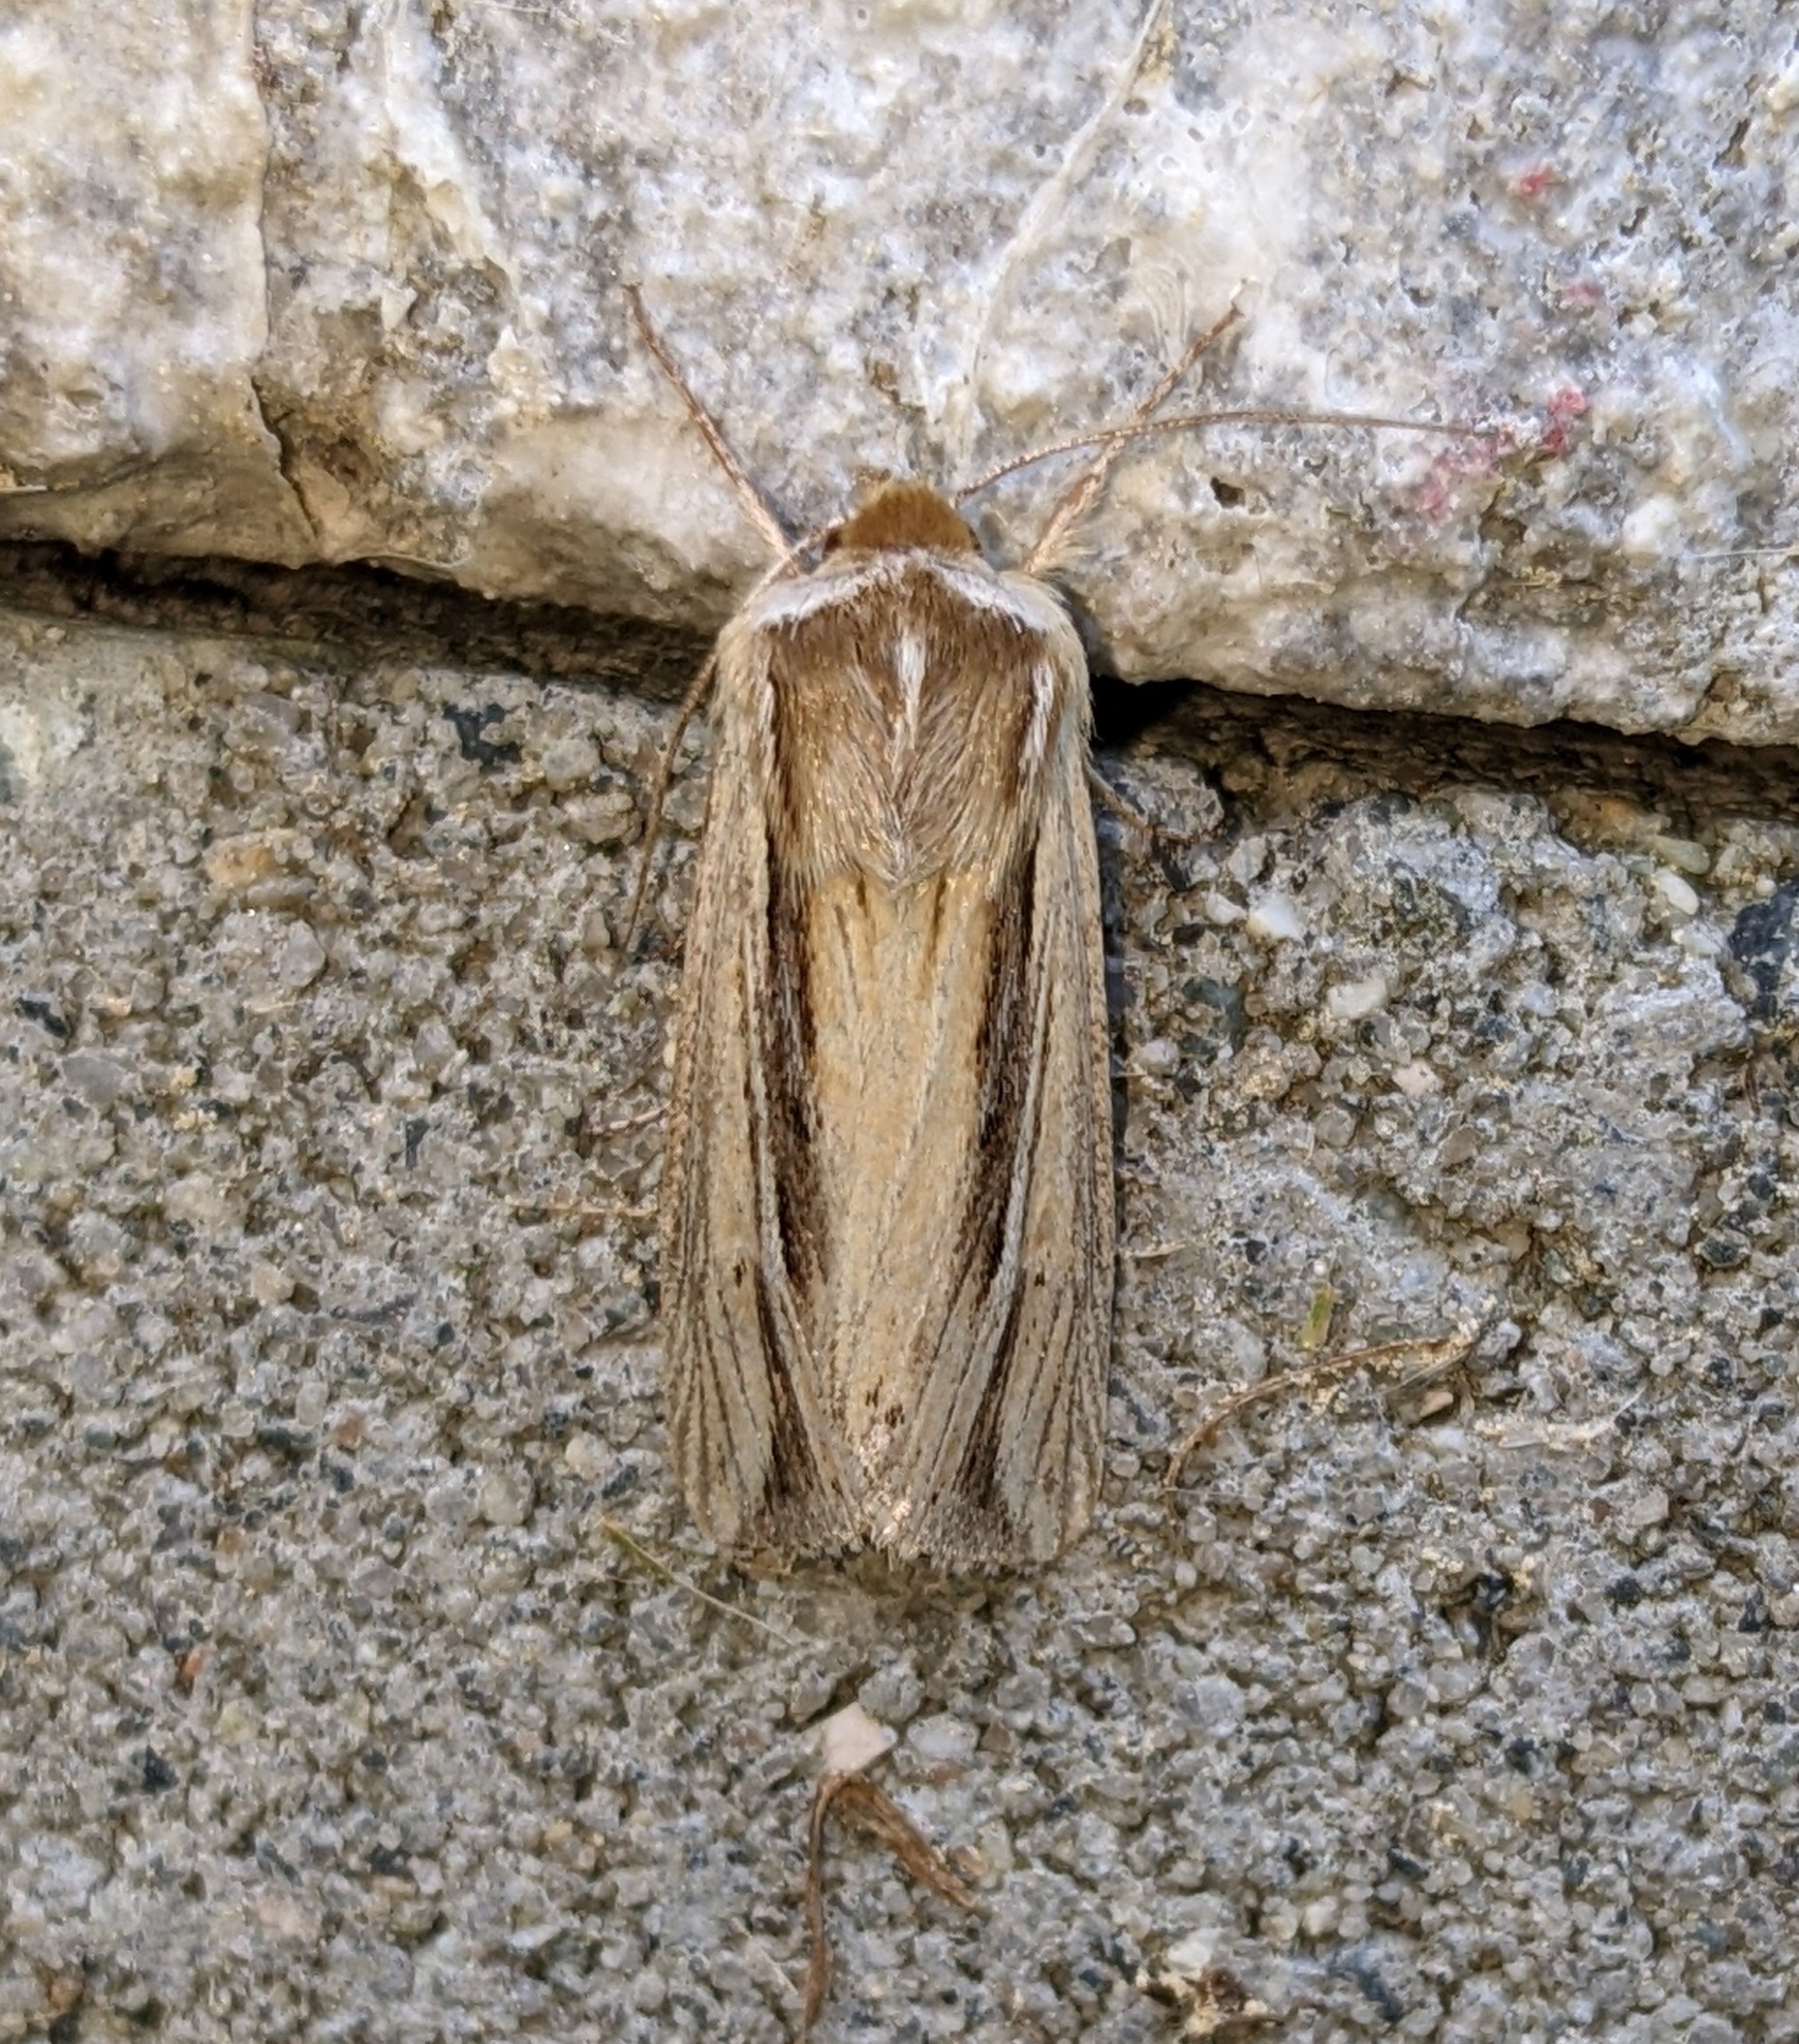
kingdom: Animalia
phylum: Arthropoda
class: Insecta
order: Lepidoptera
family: Noctuidae
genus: Dargida
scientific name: Dargida diffusa
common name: Wheat head armyworm
